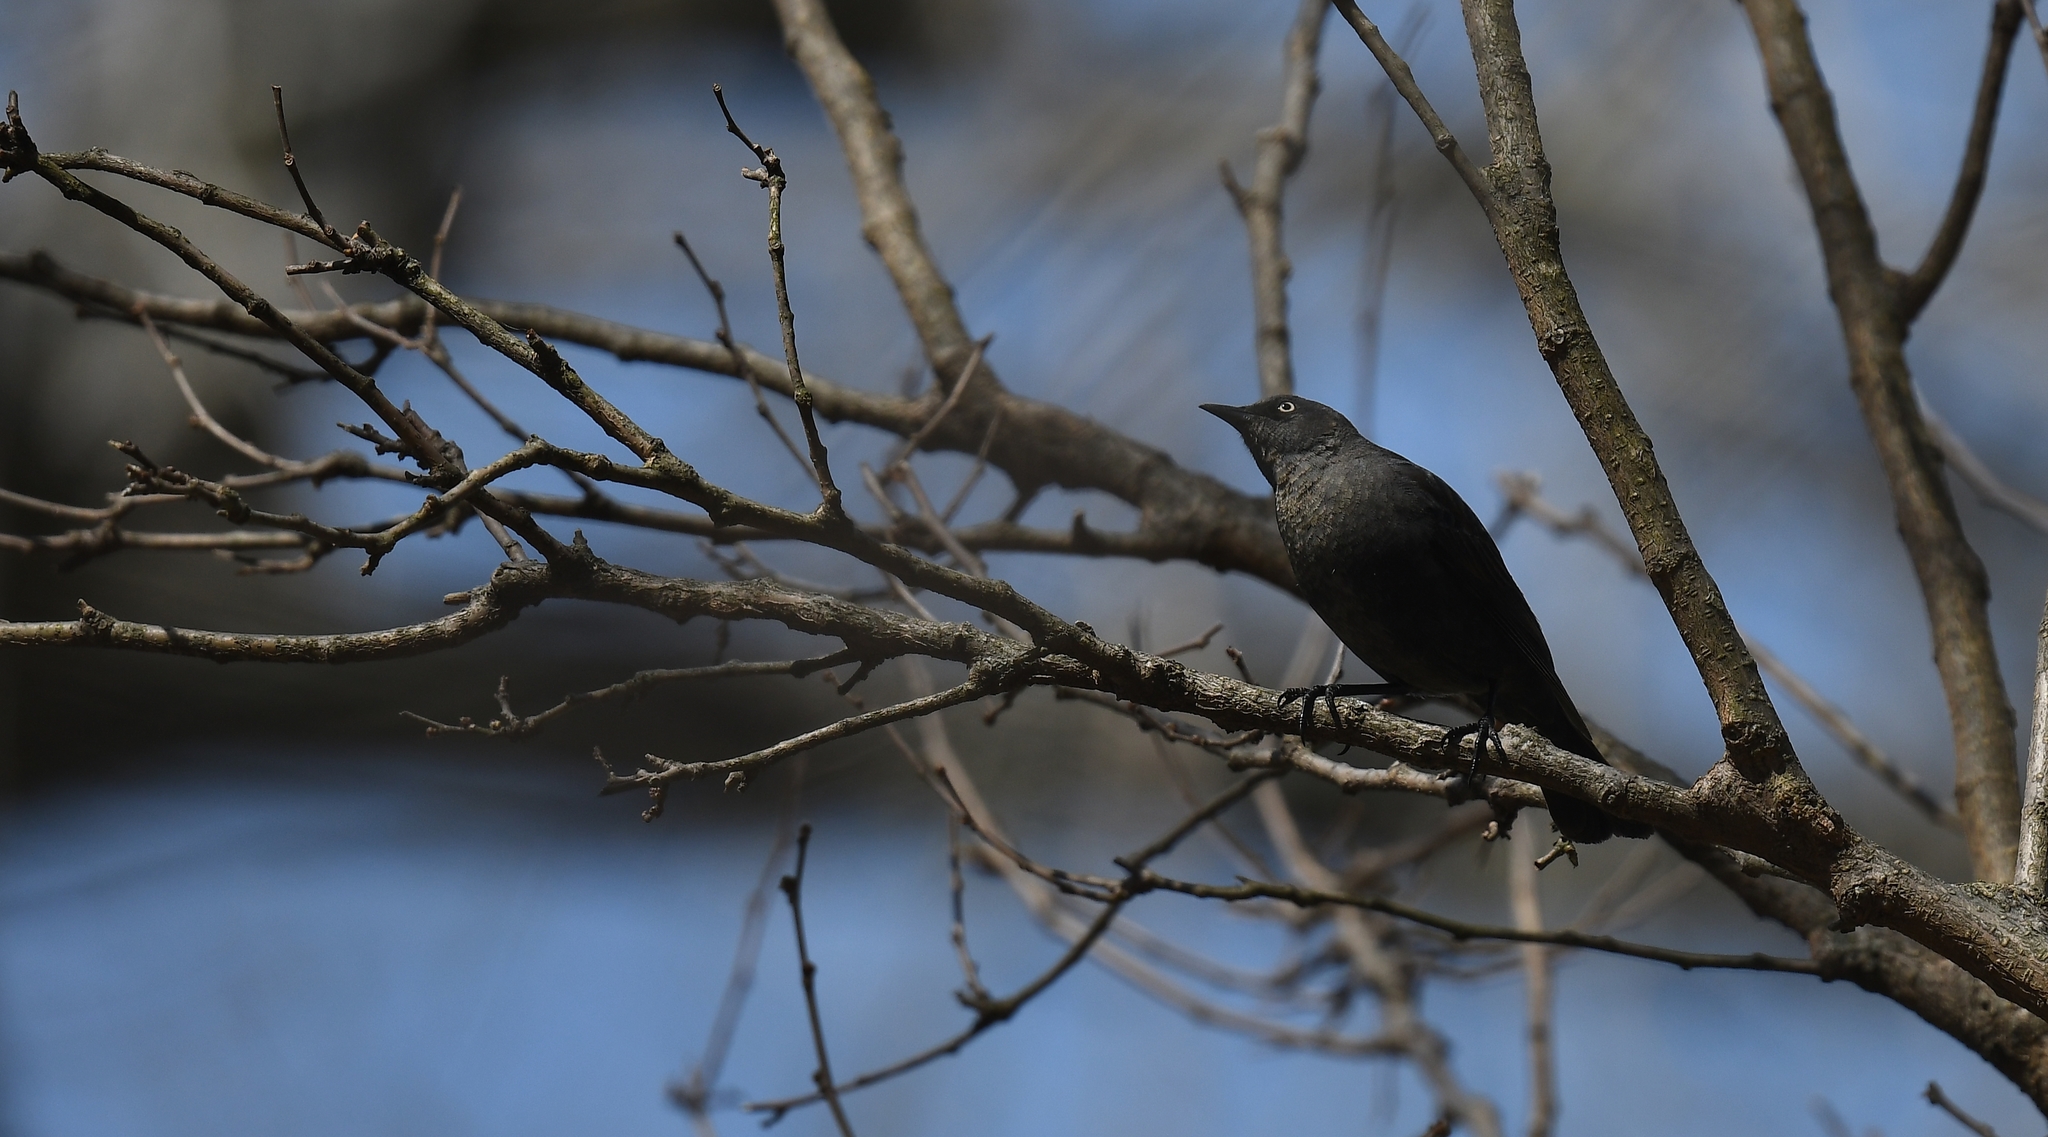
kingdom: Animalia
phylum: Chordata
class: Aves
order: Passeriformes
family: Icteridae
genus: Euphagus
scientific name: Euphagus carolinus
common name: Rusty blackbird
